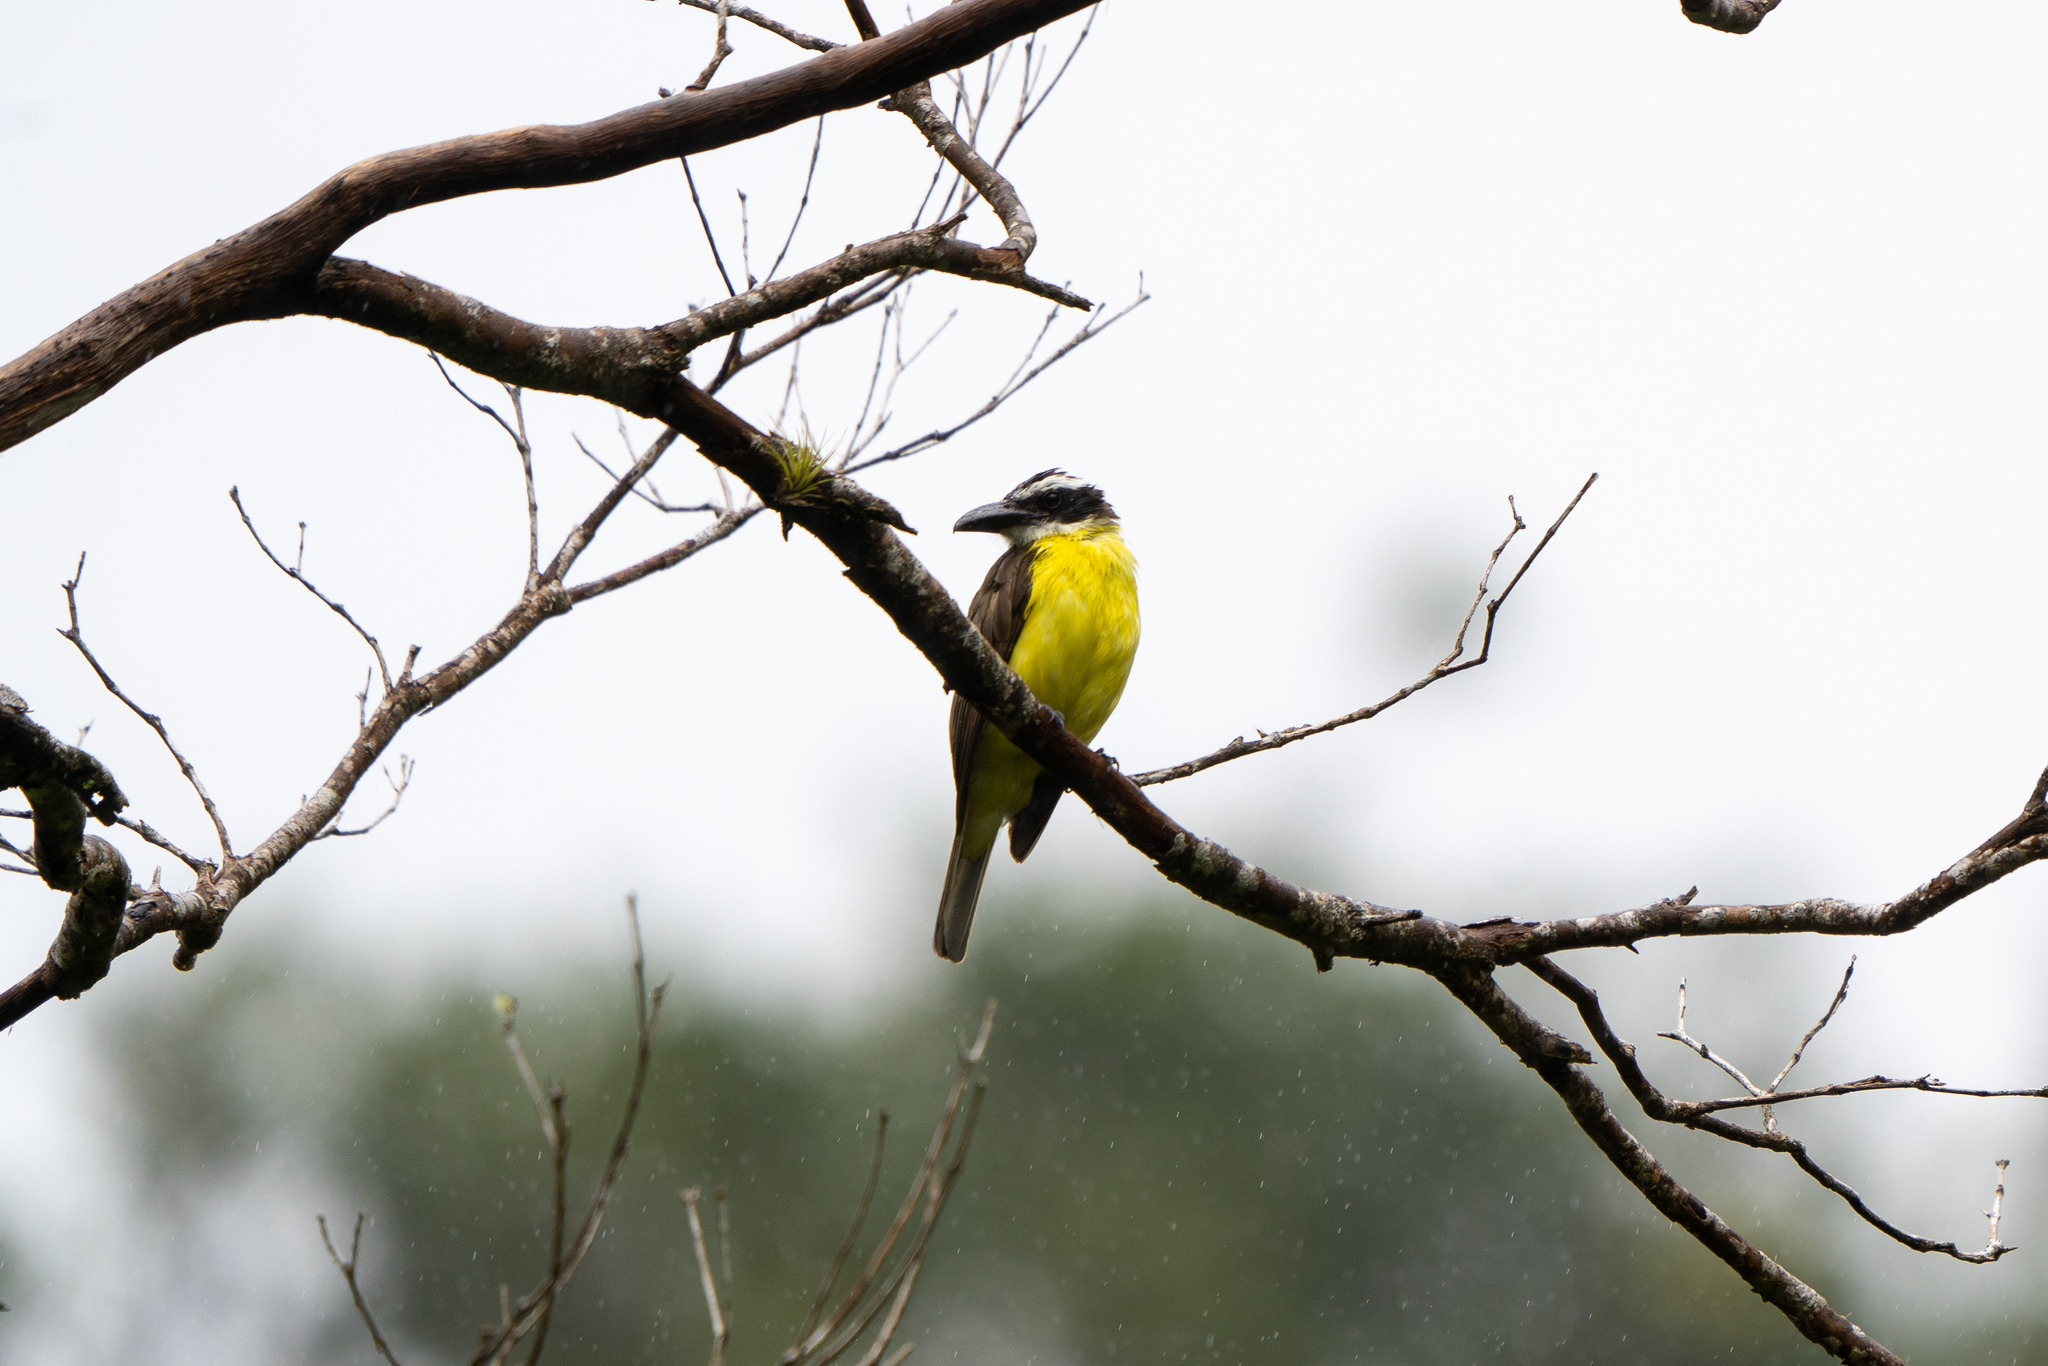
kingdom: Animalia
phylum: Chordata
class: Aves
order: Passeriformes
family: Tyrannidae
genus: Megarynchus
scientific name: Megarynchus pitangua
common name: Boat-billed flycatcher
